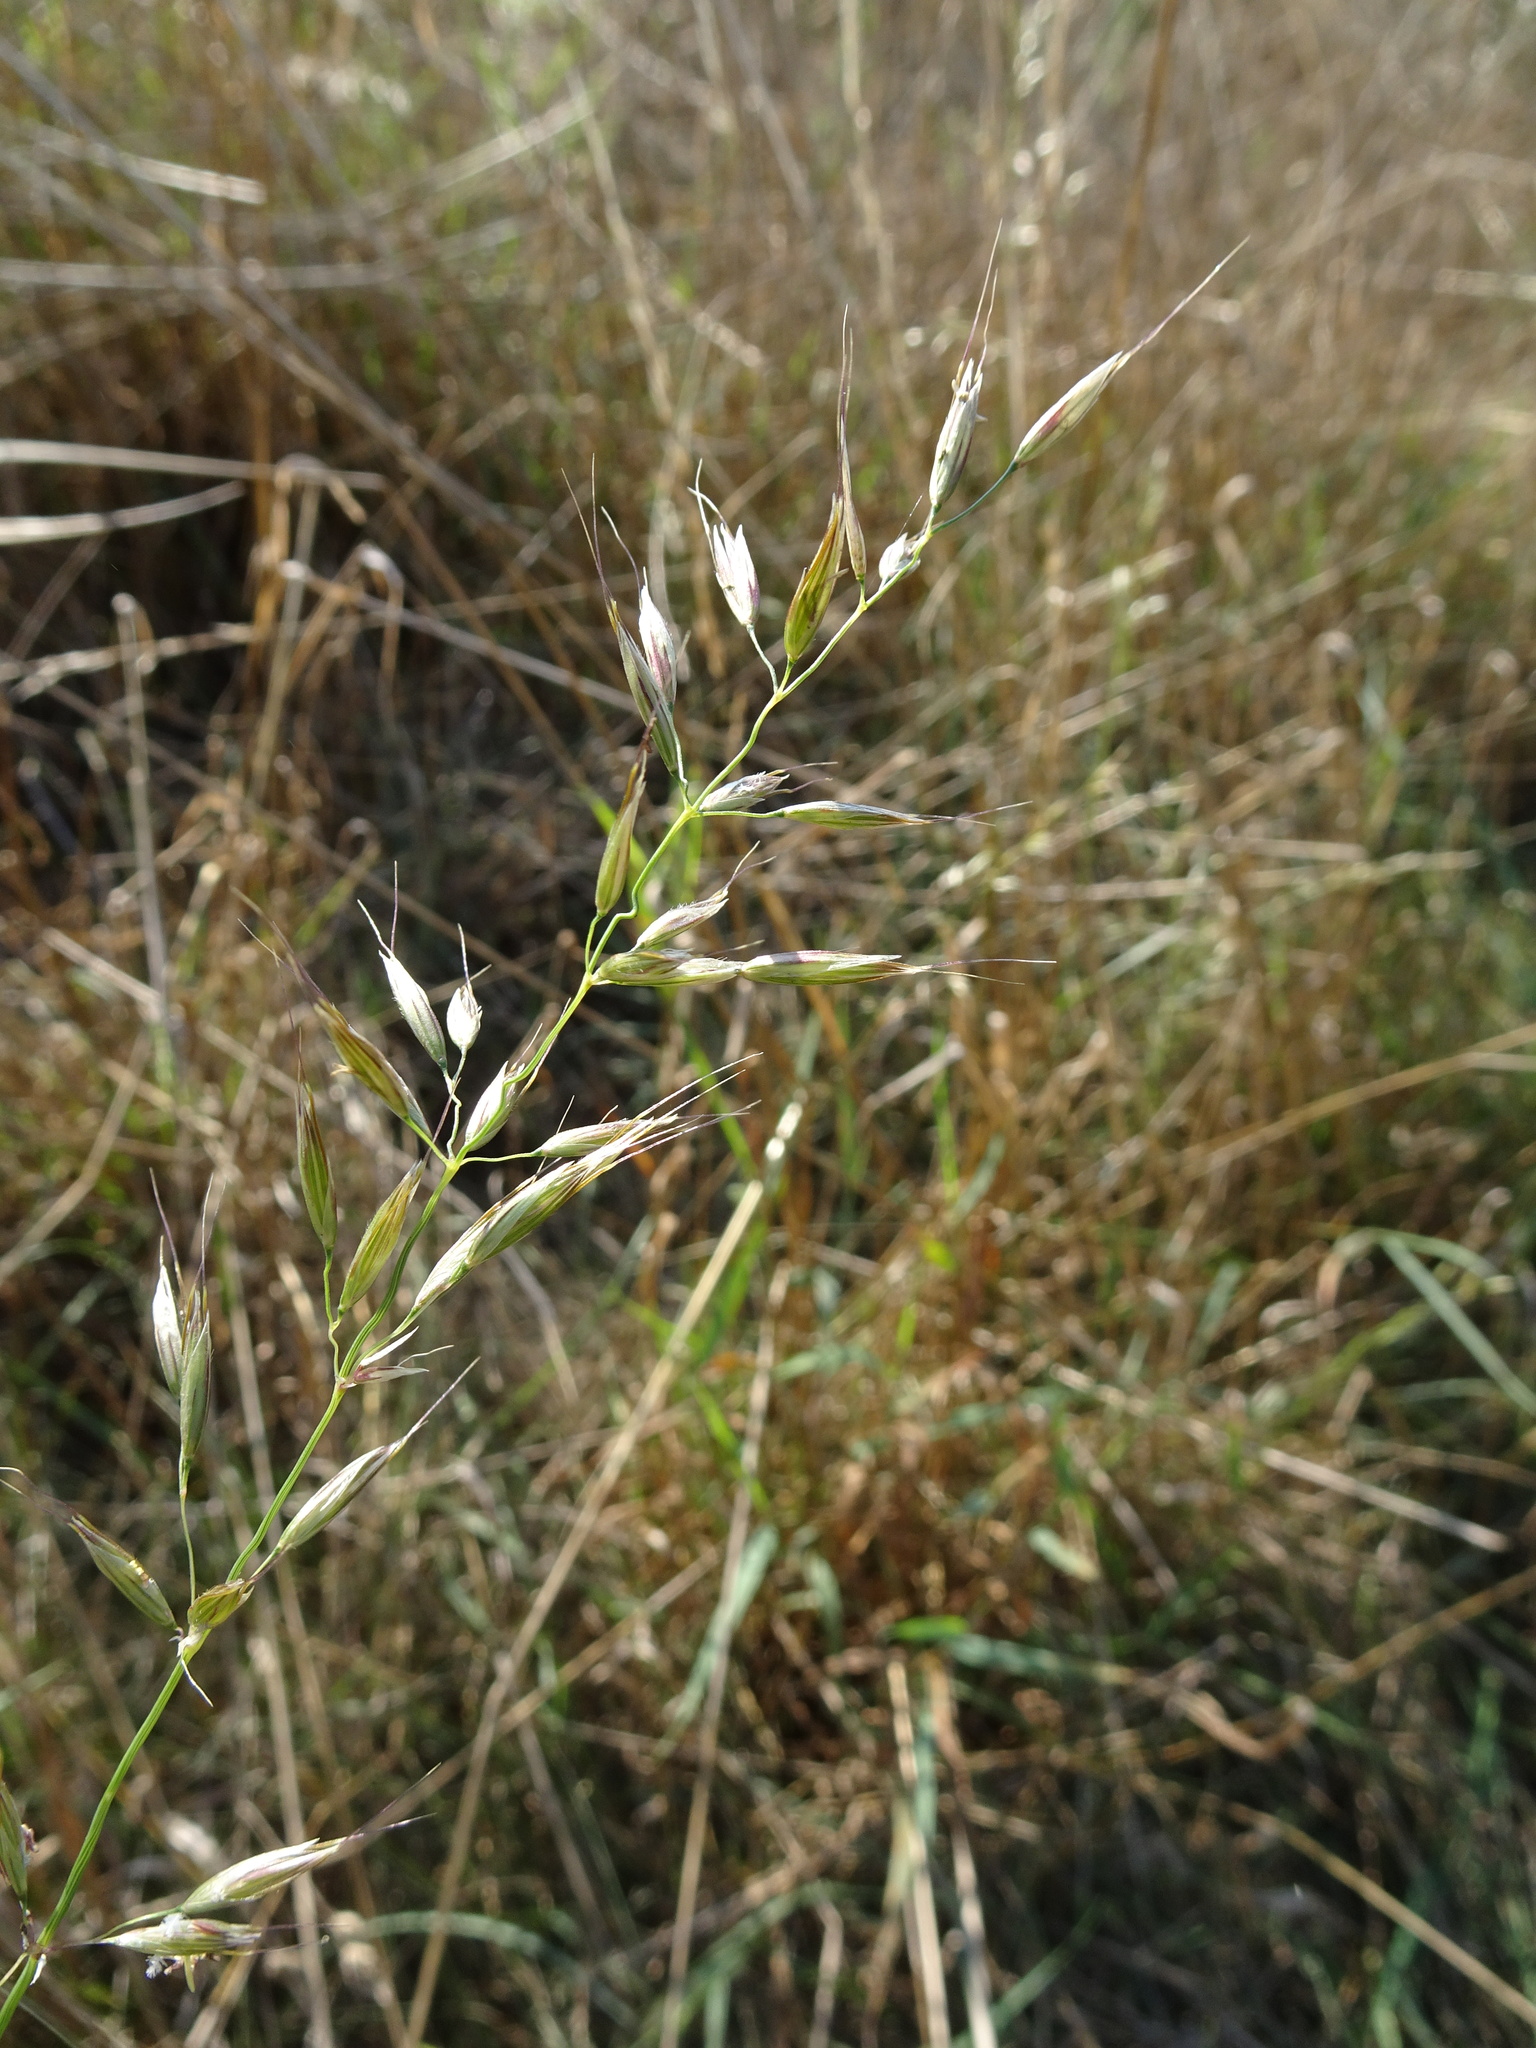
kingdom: Plantae
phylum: Tracheophyta
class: Liliopsida
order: Poales
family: Poaceae
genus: Avenula
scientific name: Avenula pubescens
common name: Downy alpine oatgrass
